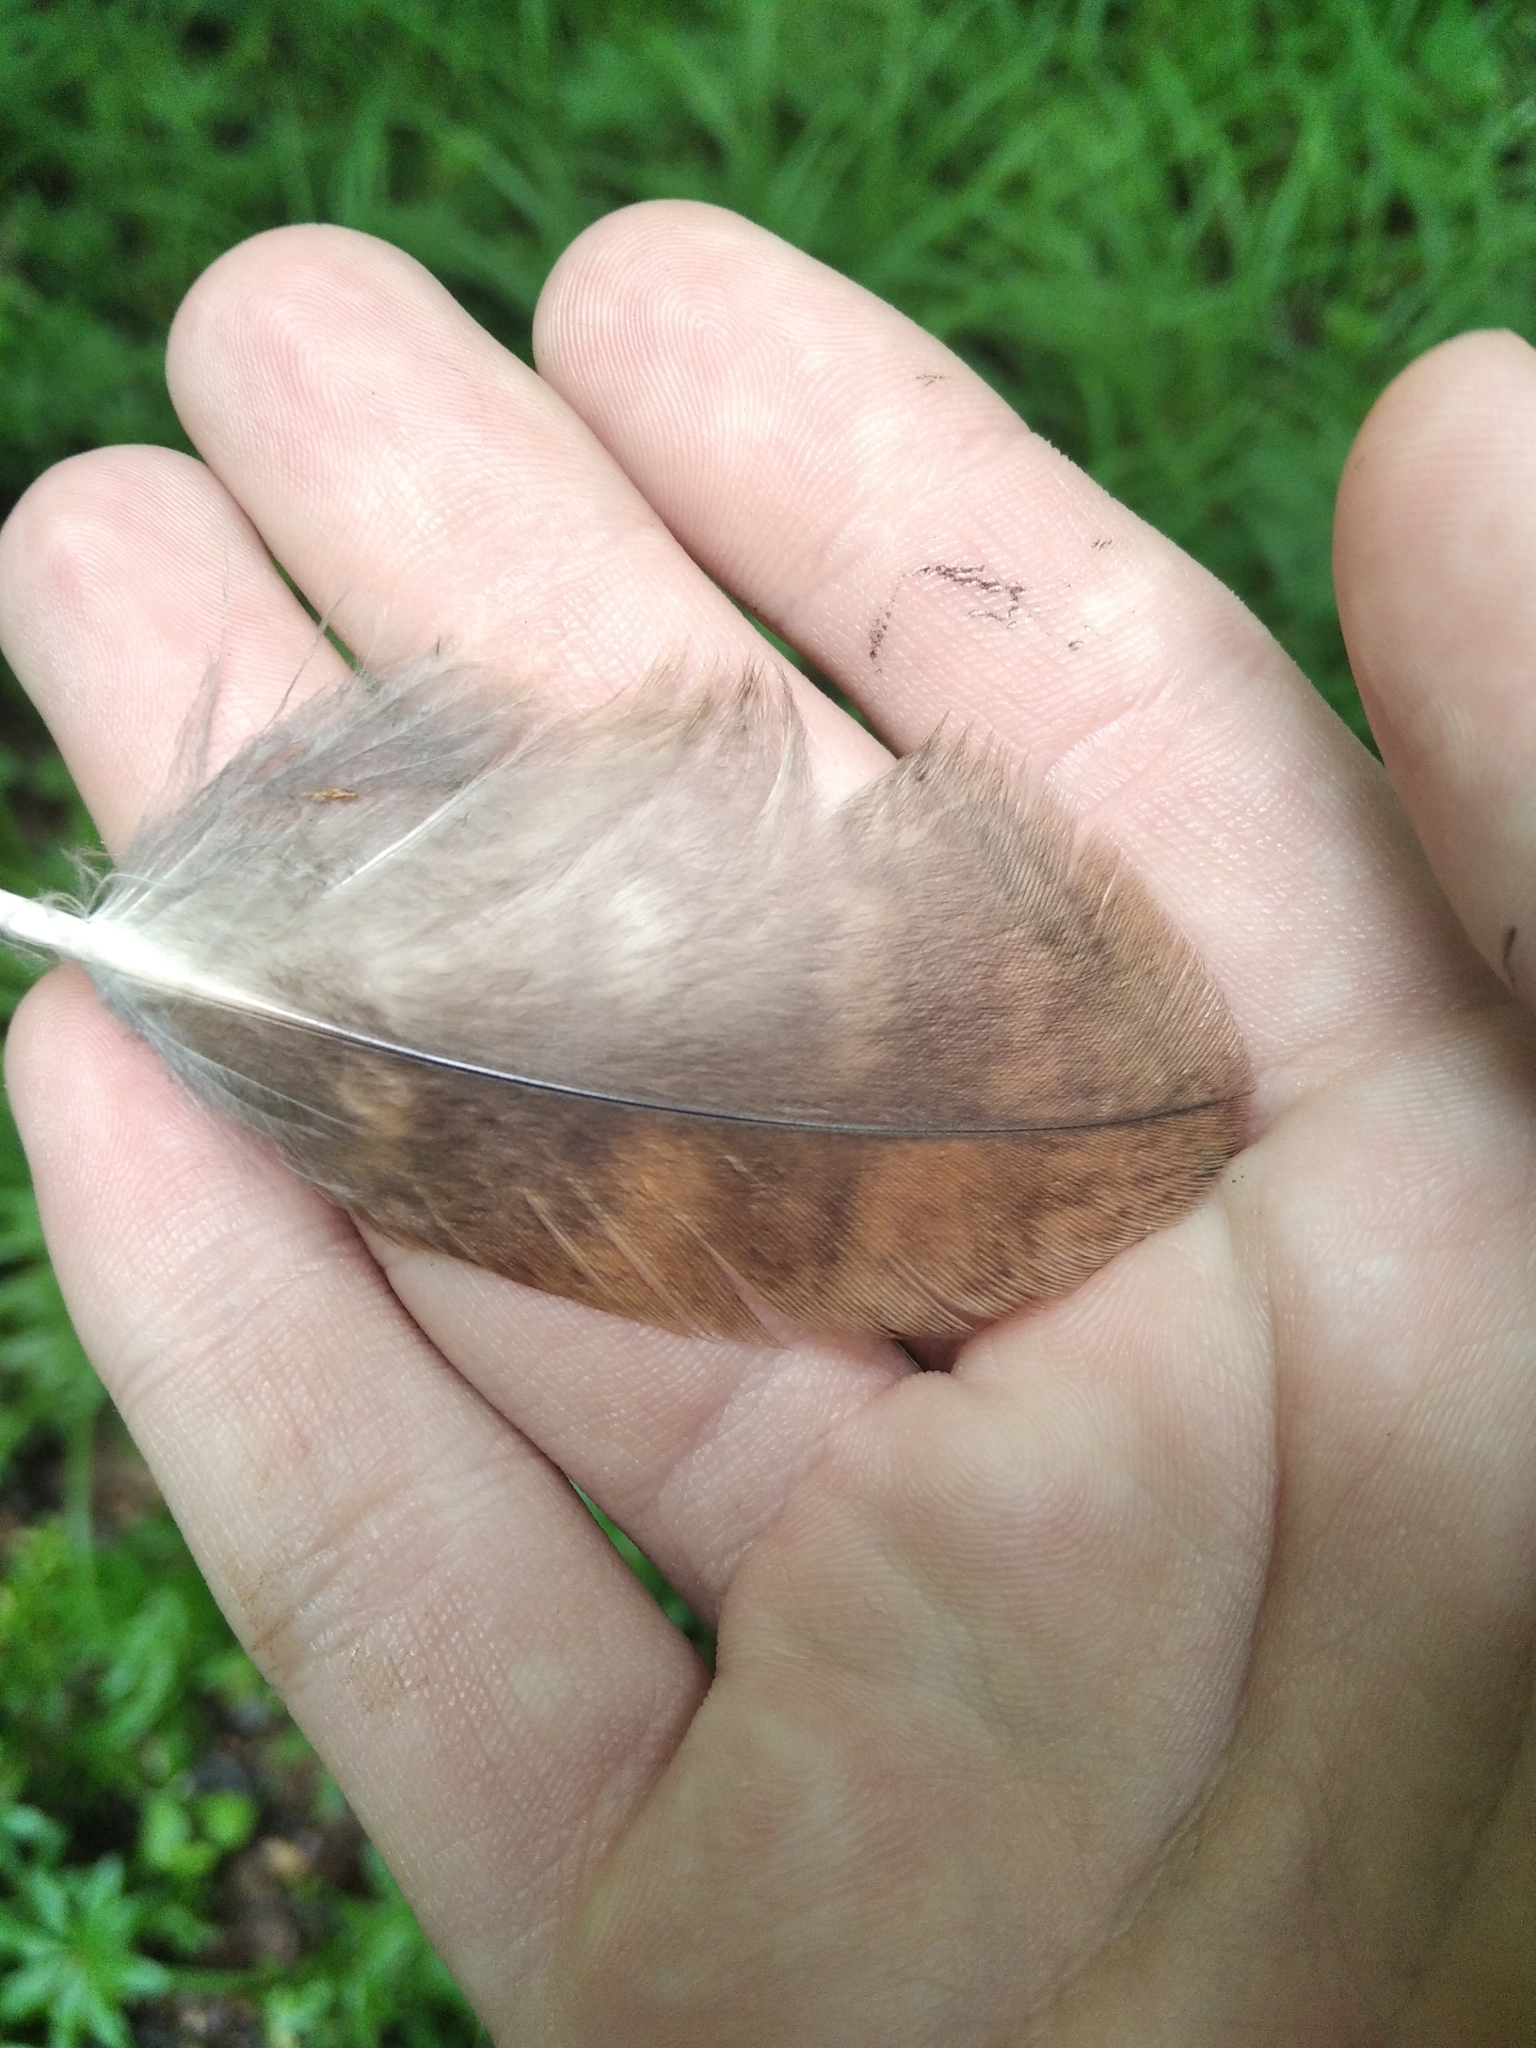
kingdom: Animalia
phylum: Chordata
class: Aves
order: Strigiformes
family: Strigidae
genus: Strix
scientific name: Strix aluco
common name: Tawny owl
